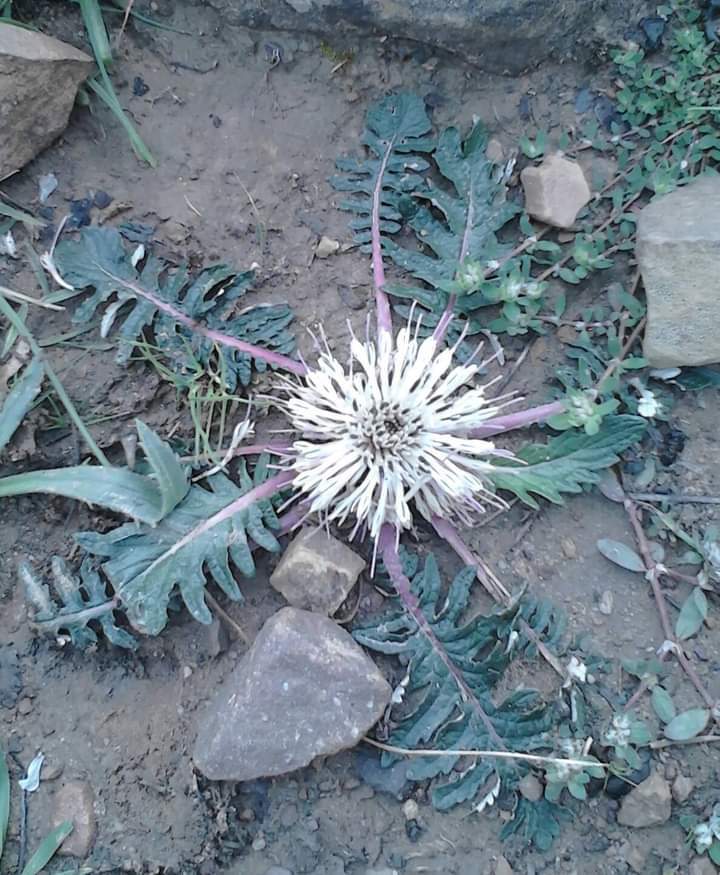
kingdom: Plantae
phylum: Tracheophyta
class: Magnoliopsida
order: Asterales
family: Asteraceae
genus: Leuzea
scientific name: Leuzea acaulis
